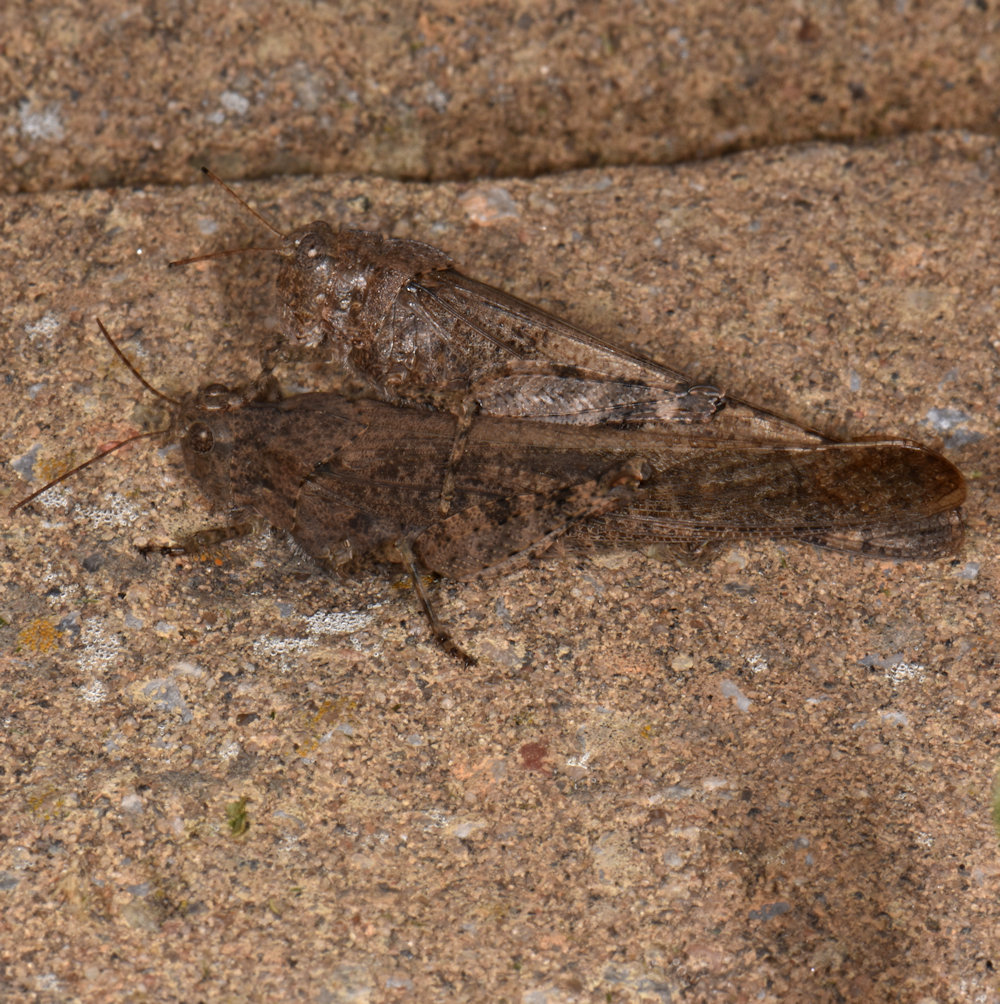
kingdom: Animalia
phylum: Arthropoda
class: Insecta
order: Orthoptera
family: Acrididae
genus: Dissosteira
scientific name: Dissosteira carolina
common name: Carolina grasshopper
